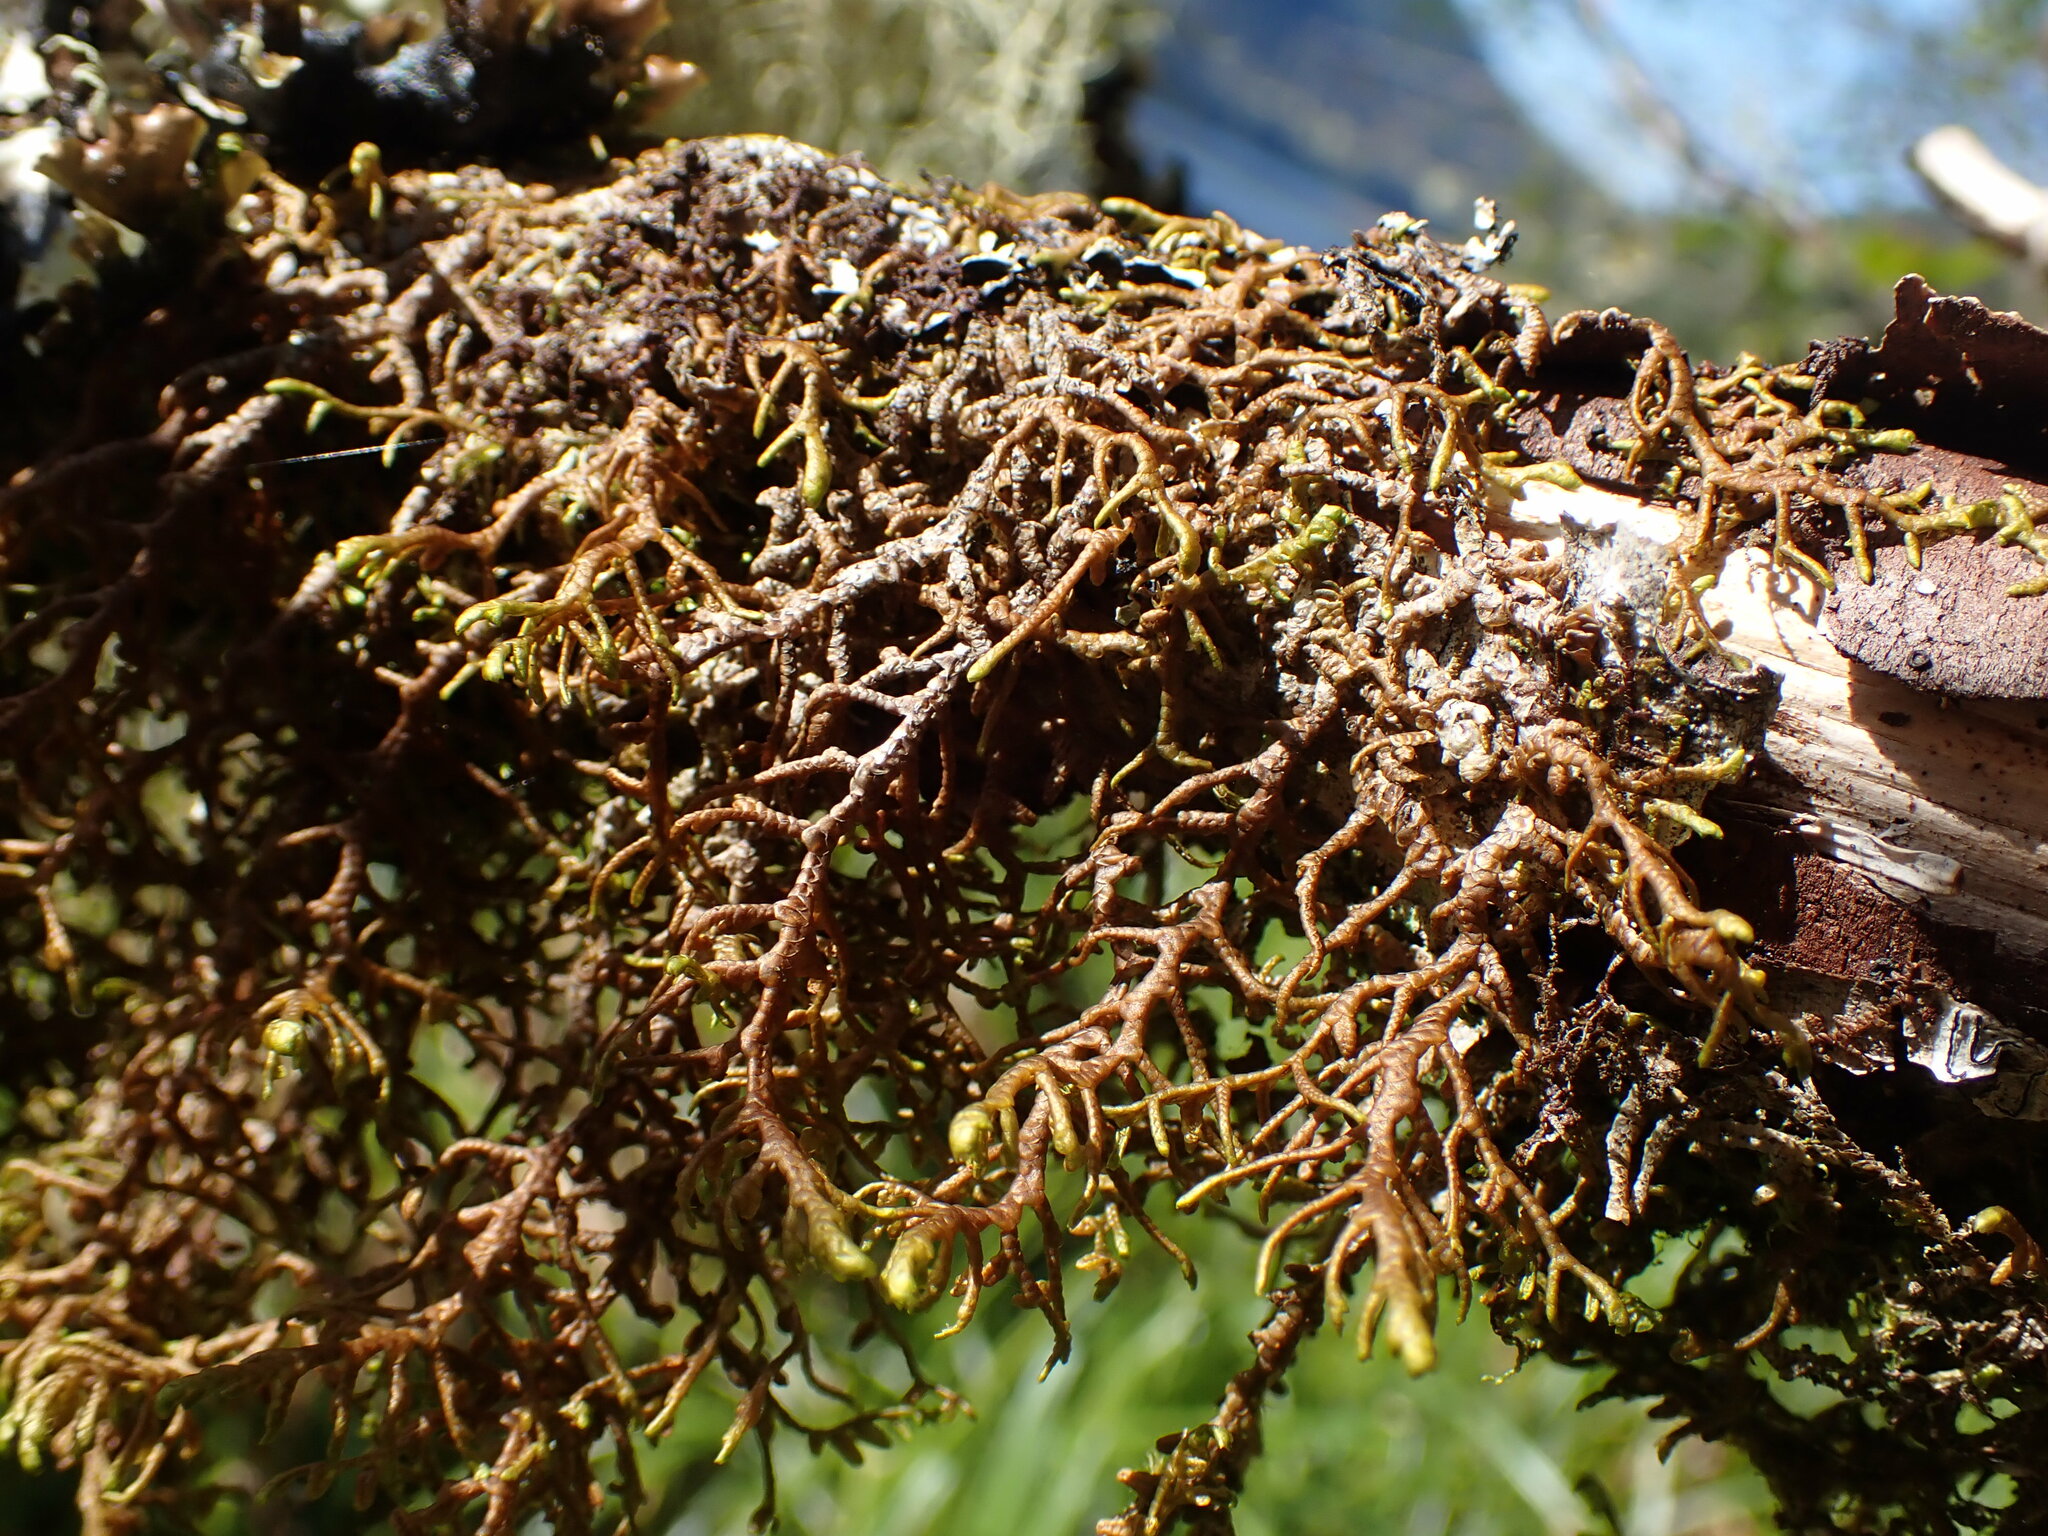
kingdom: Plantae
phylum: Marchantiophyta
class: Jungermanniopsida
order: Porellales
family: Porellaceae
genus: Porella
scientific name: Porella navicularis
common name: Tree ruffle liverwort
